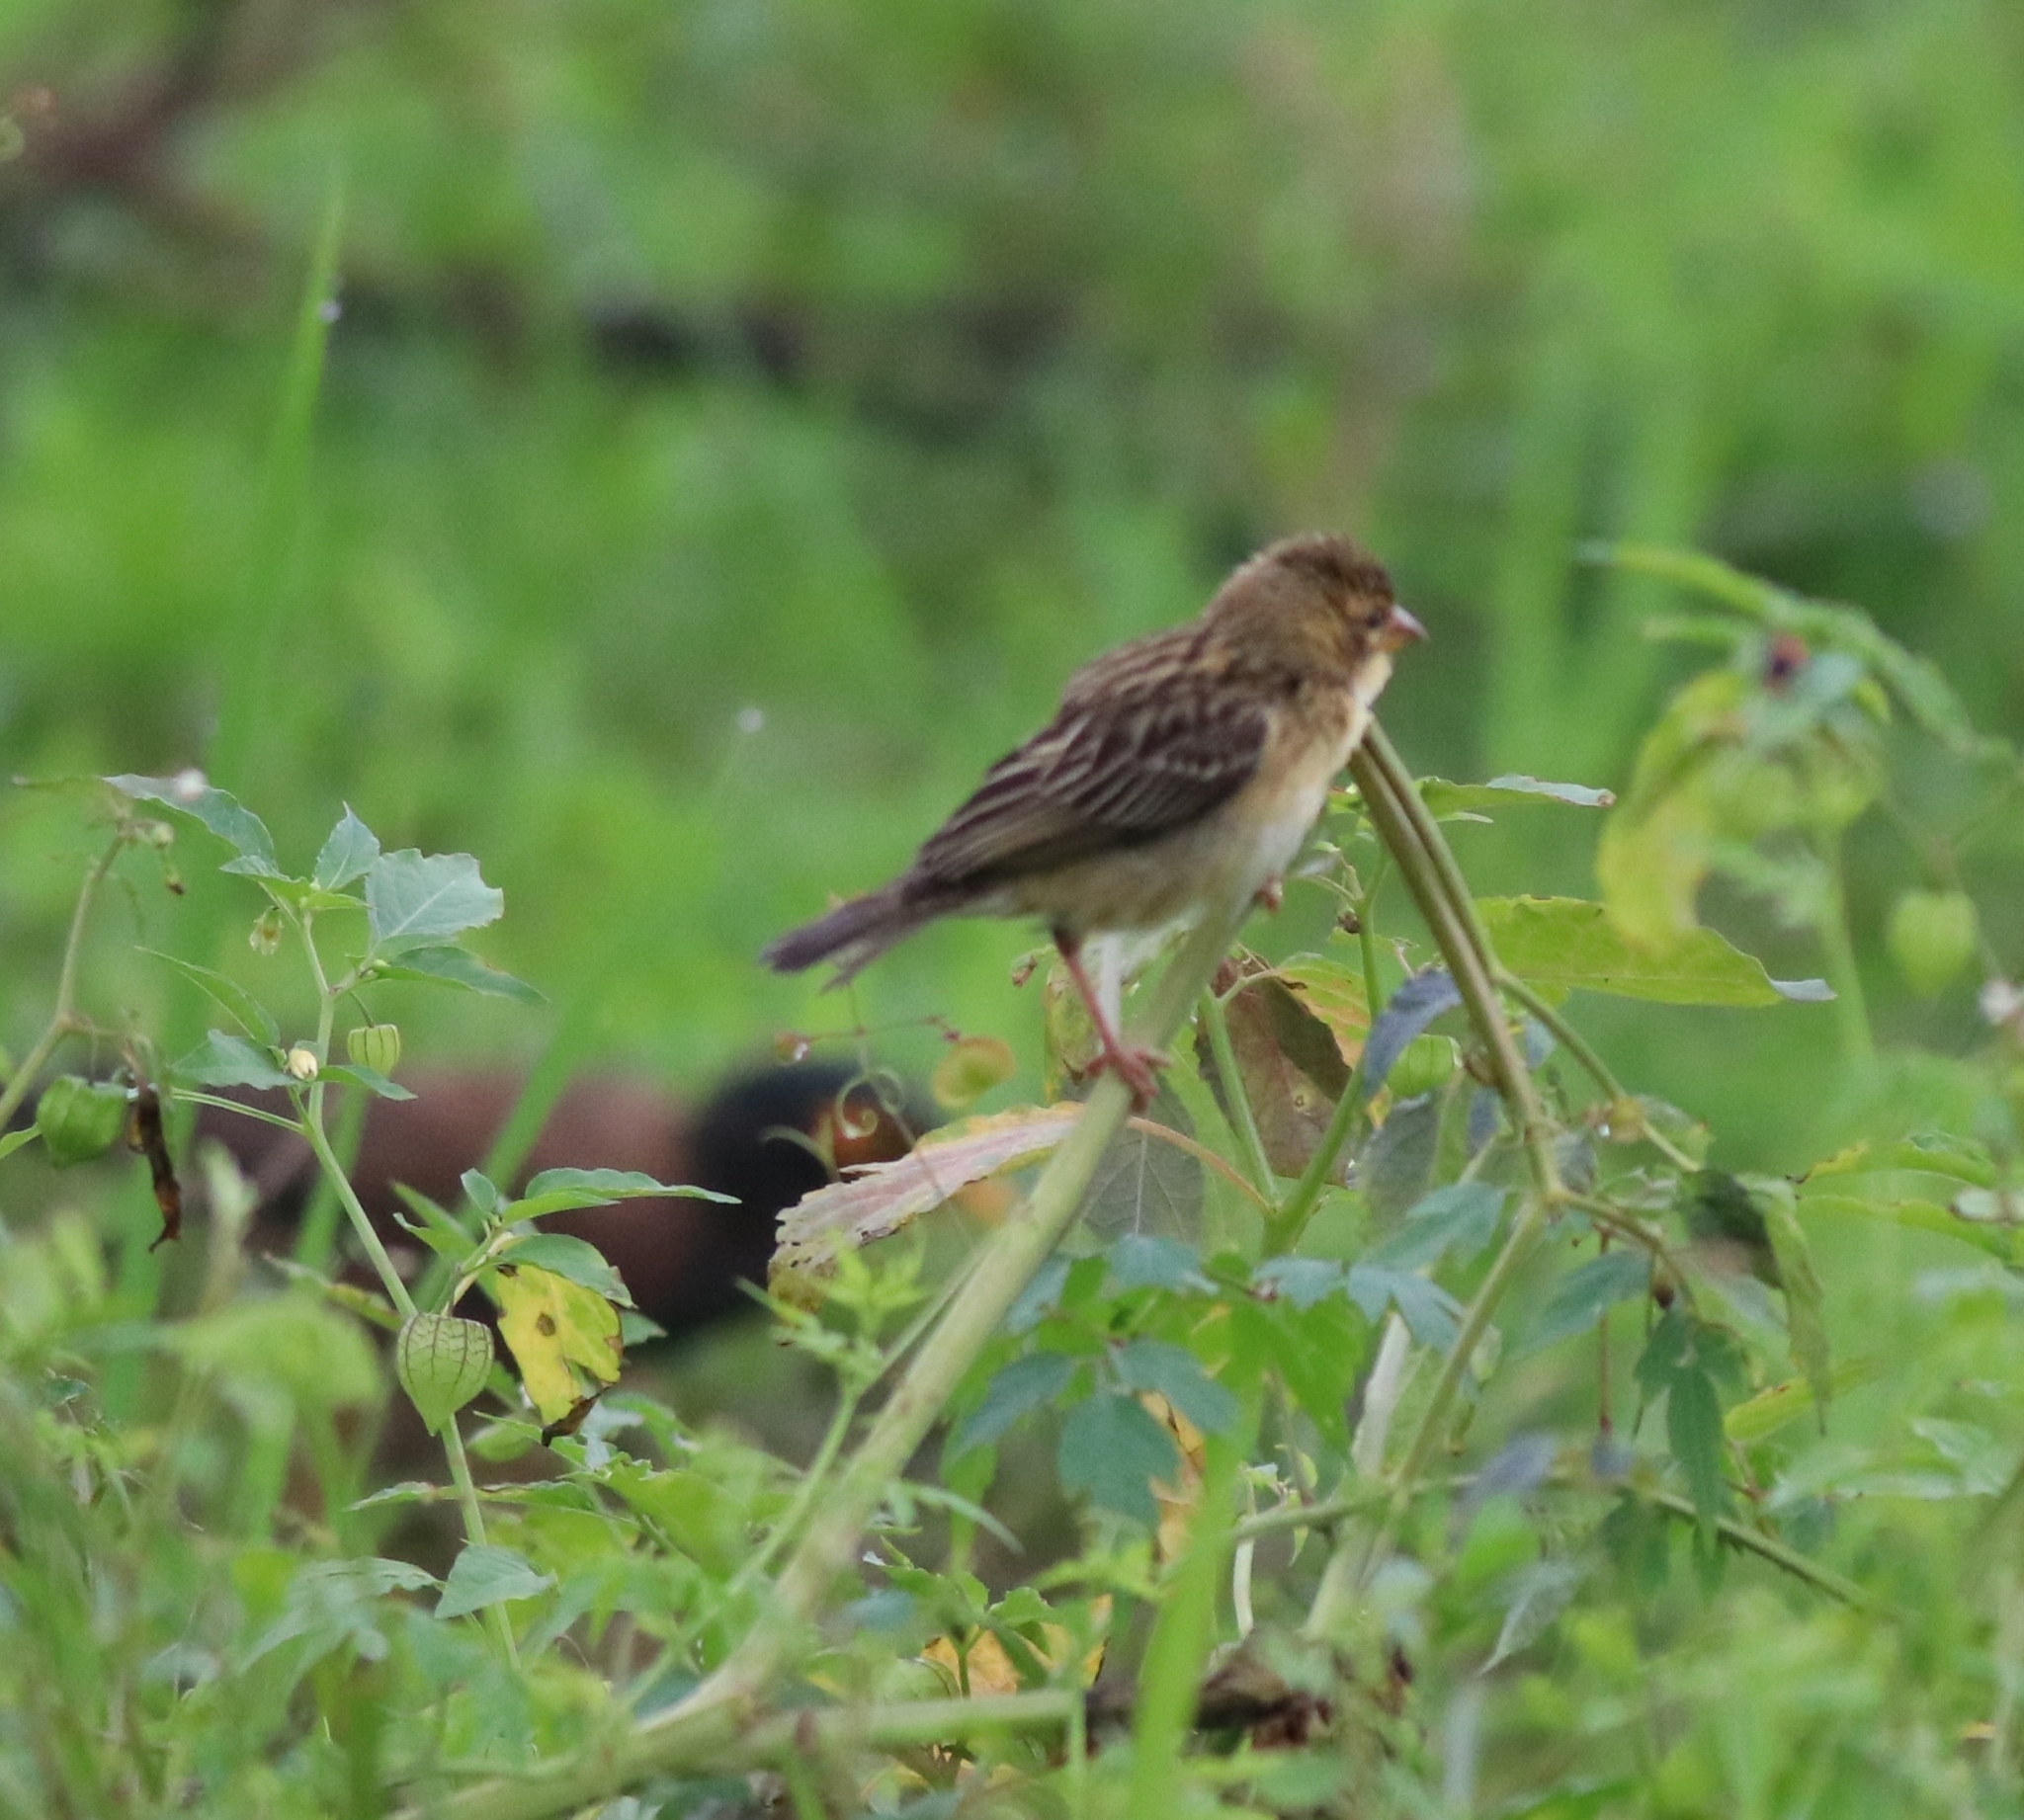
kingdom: Animalia
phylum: Chordata
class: Aves
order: Passeriformes
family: Ploceidae
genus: Ploceus
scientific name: Ploceus philippinus
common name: Baya weaver
